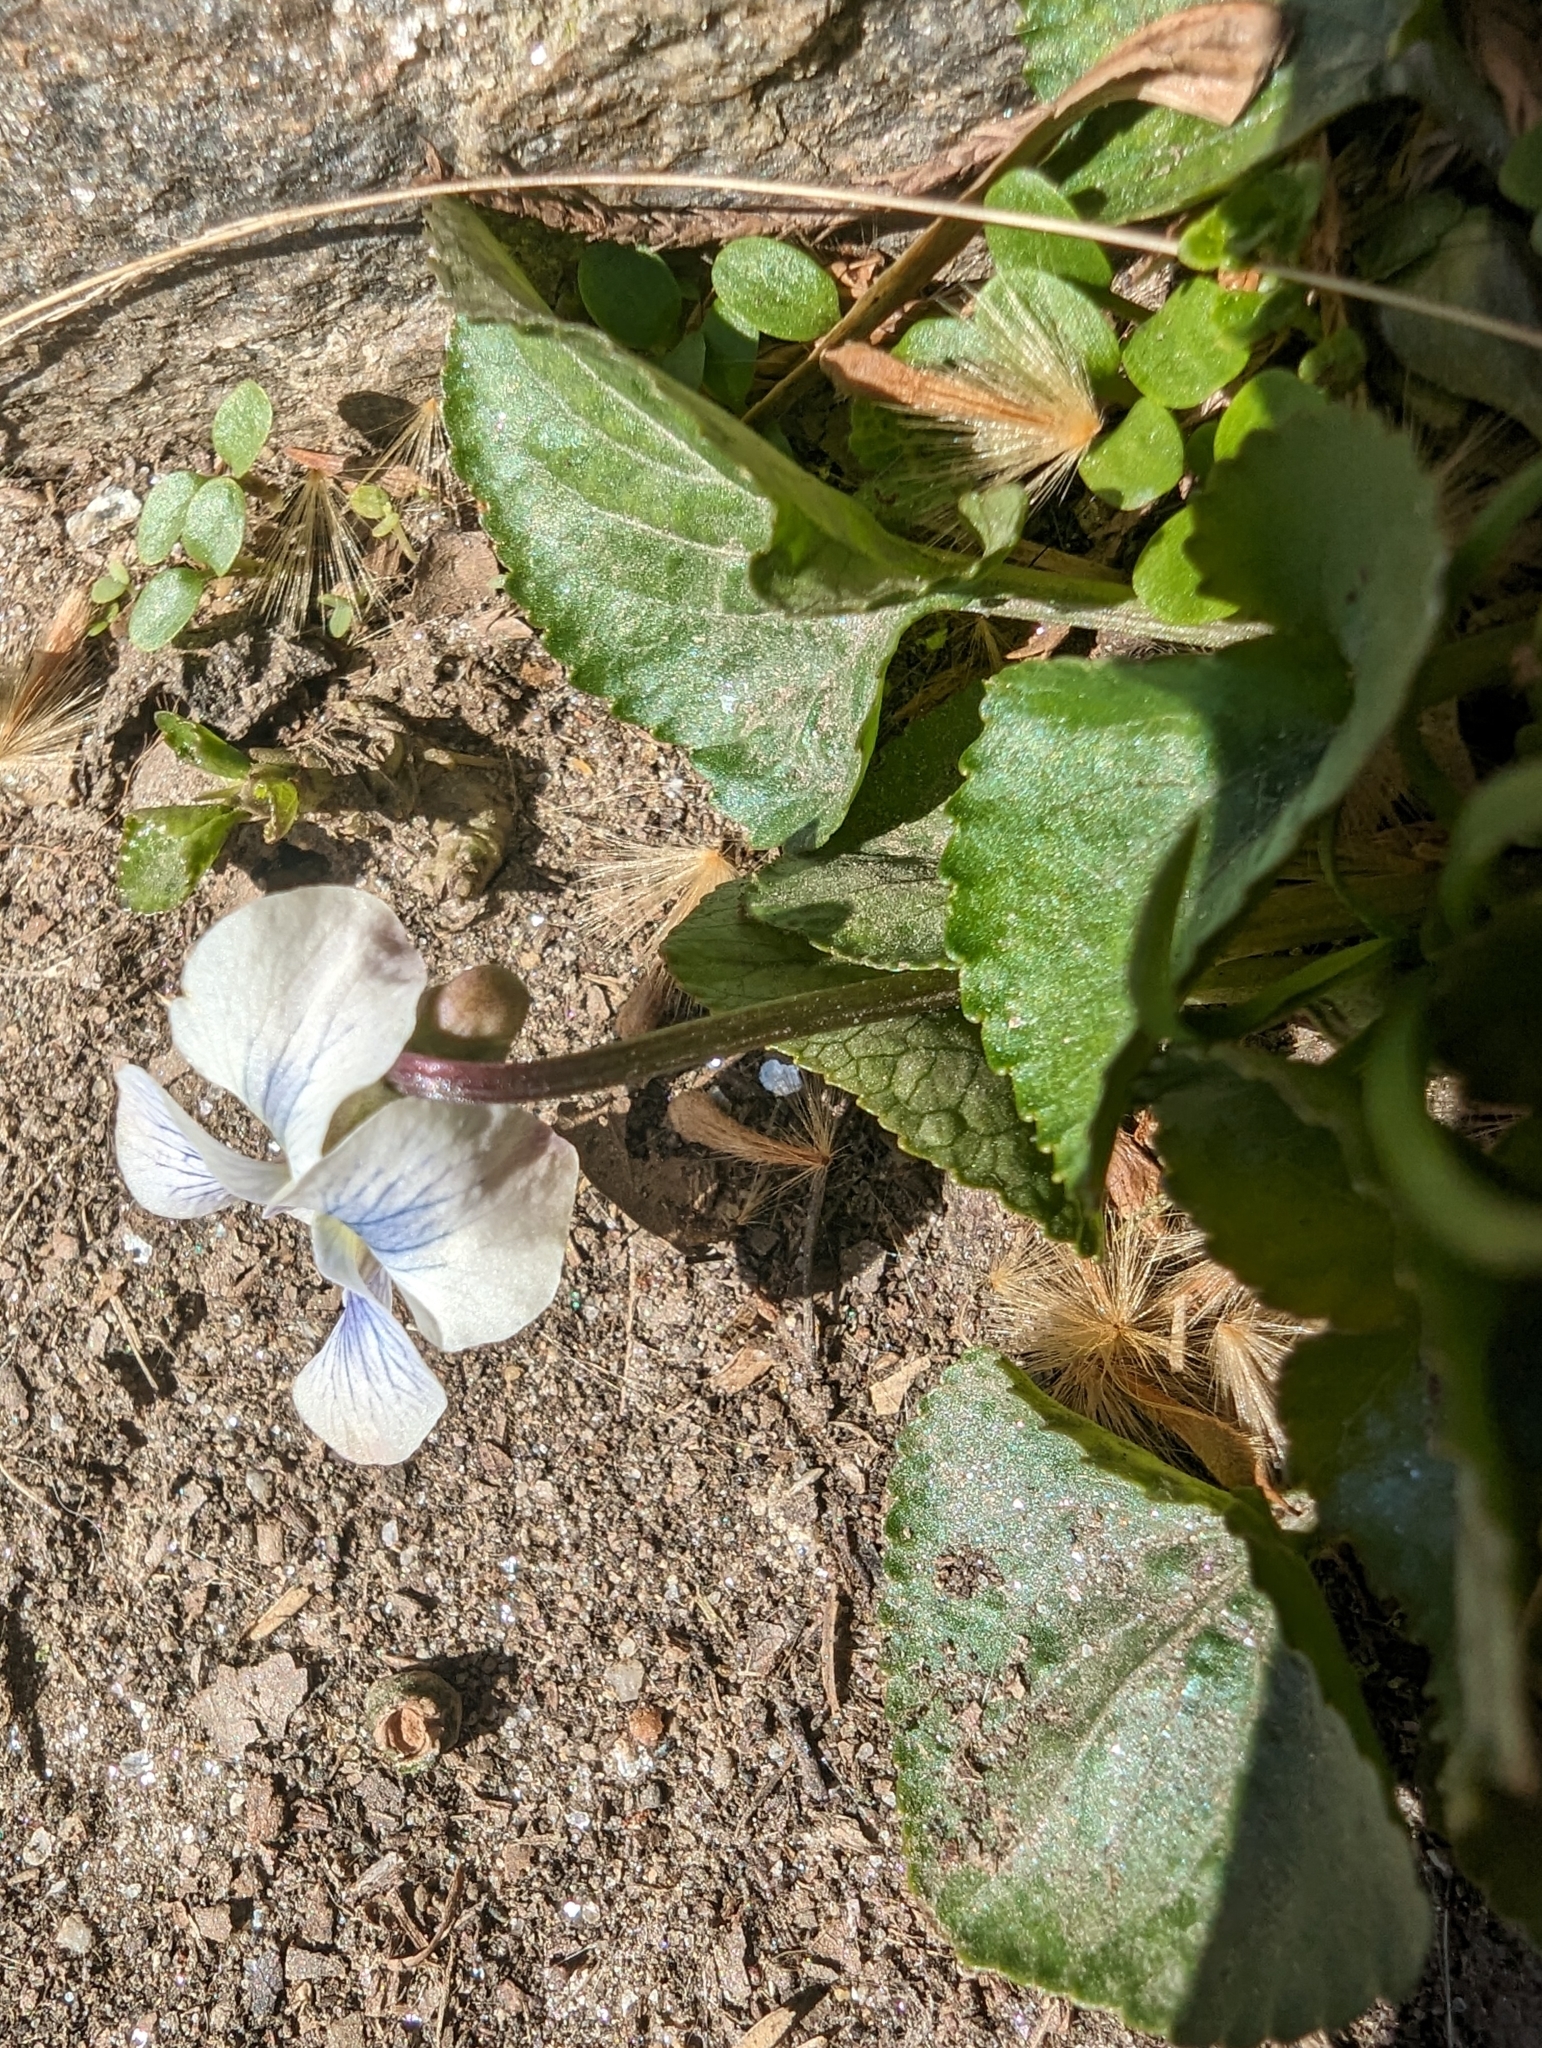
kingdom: Plantae
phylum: Tracheophyta
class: Magnoliopsida
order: Malpighiales
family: Violaceae
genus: Viola
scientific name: Viola sororia
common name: Dooryard violet
